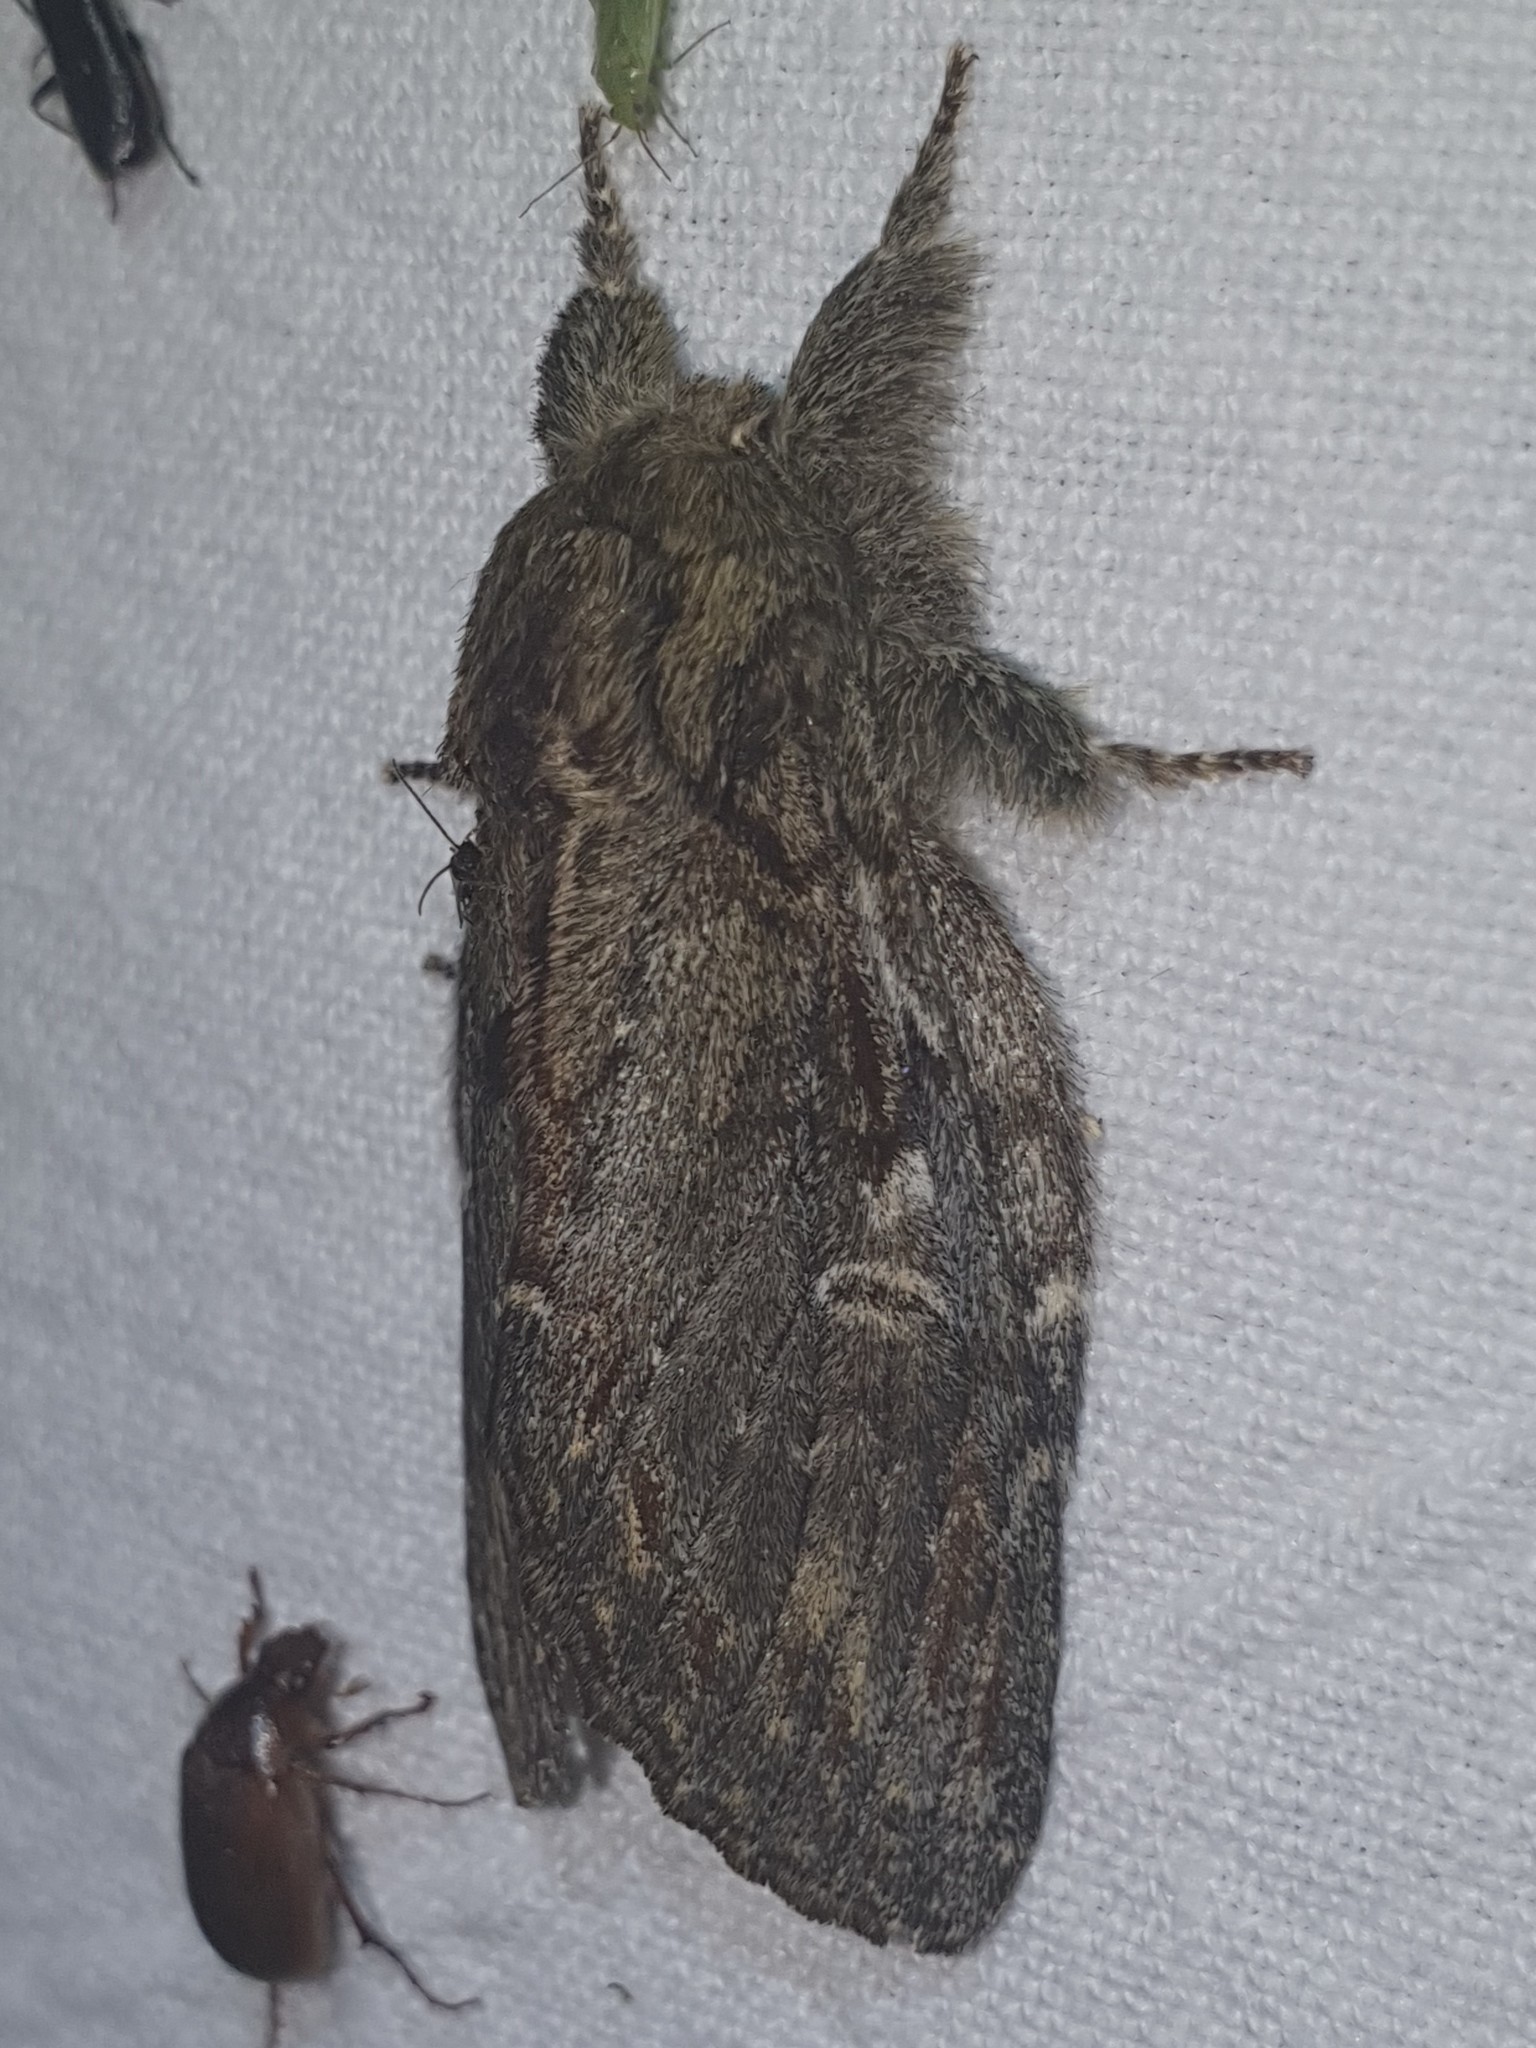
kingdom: Animalia
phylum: Arthropoda
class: Insecta
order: Lepidoptera
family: Notodontidae
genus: Peridea
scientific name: Peridea anceps
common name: Great prominent
